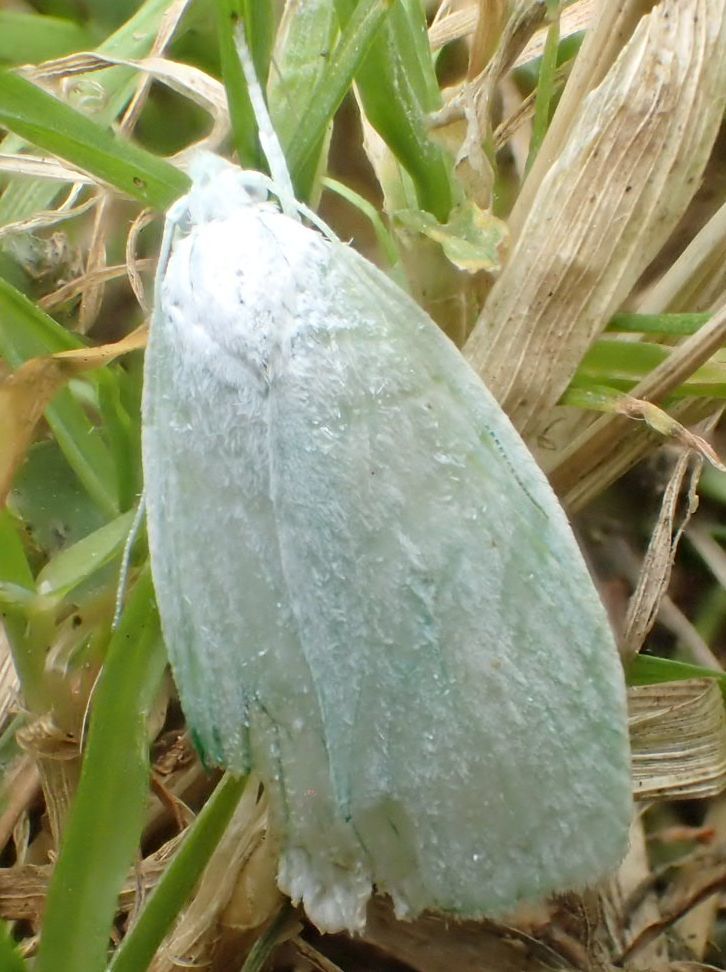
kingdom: Animalia
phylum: Arthropoda
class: Insecta
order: Lepidoptera
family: Oecophoridae
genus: Nymphostola
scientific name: Nymphostola galactina
